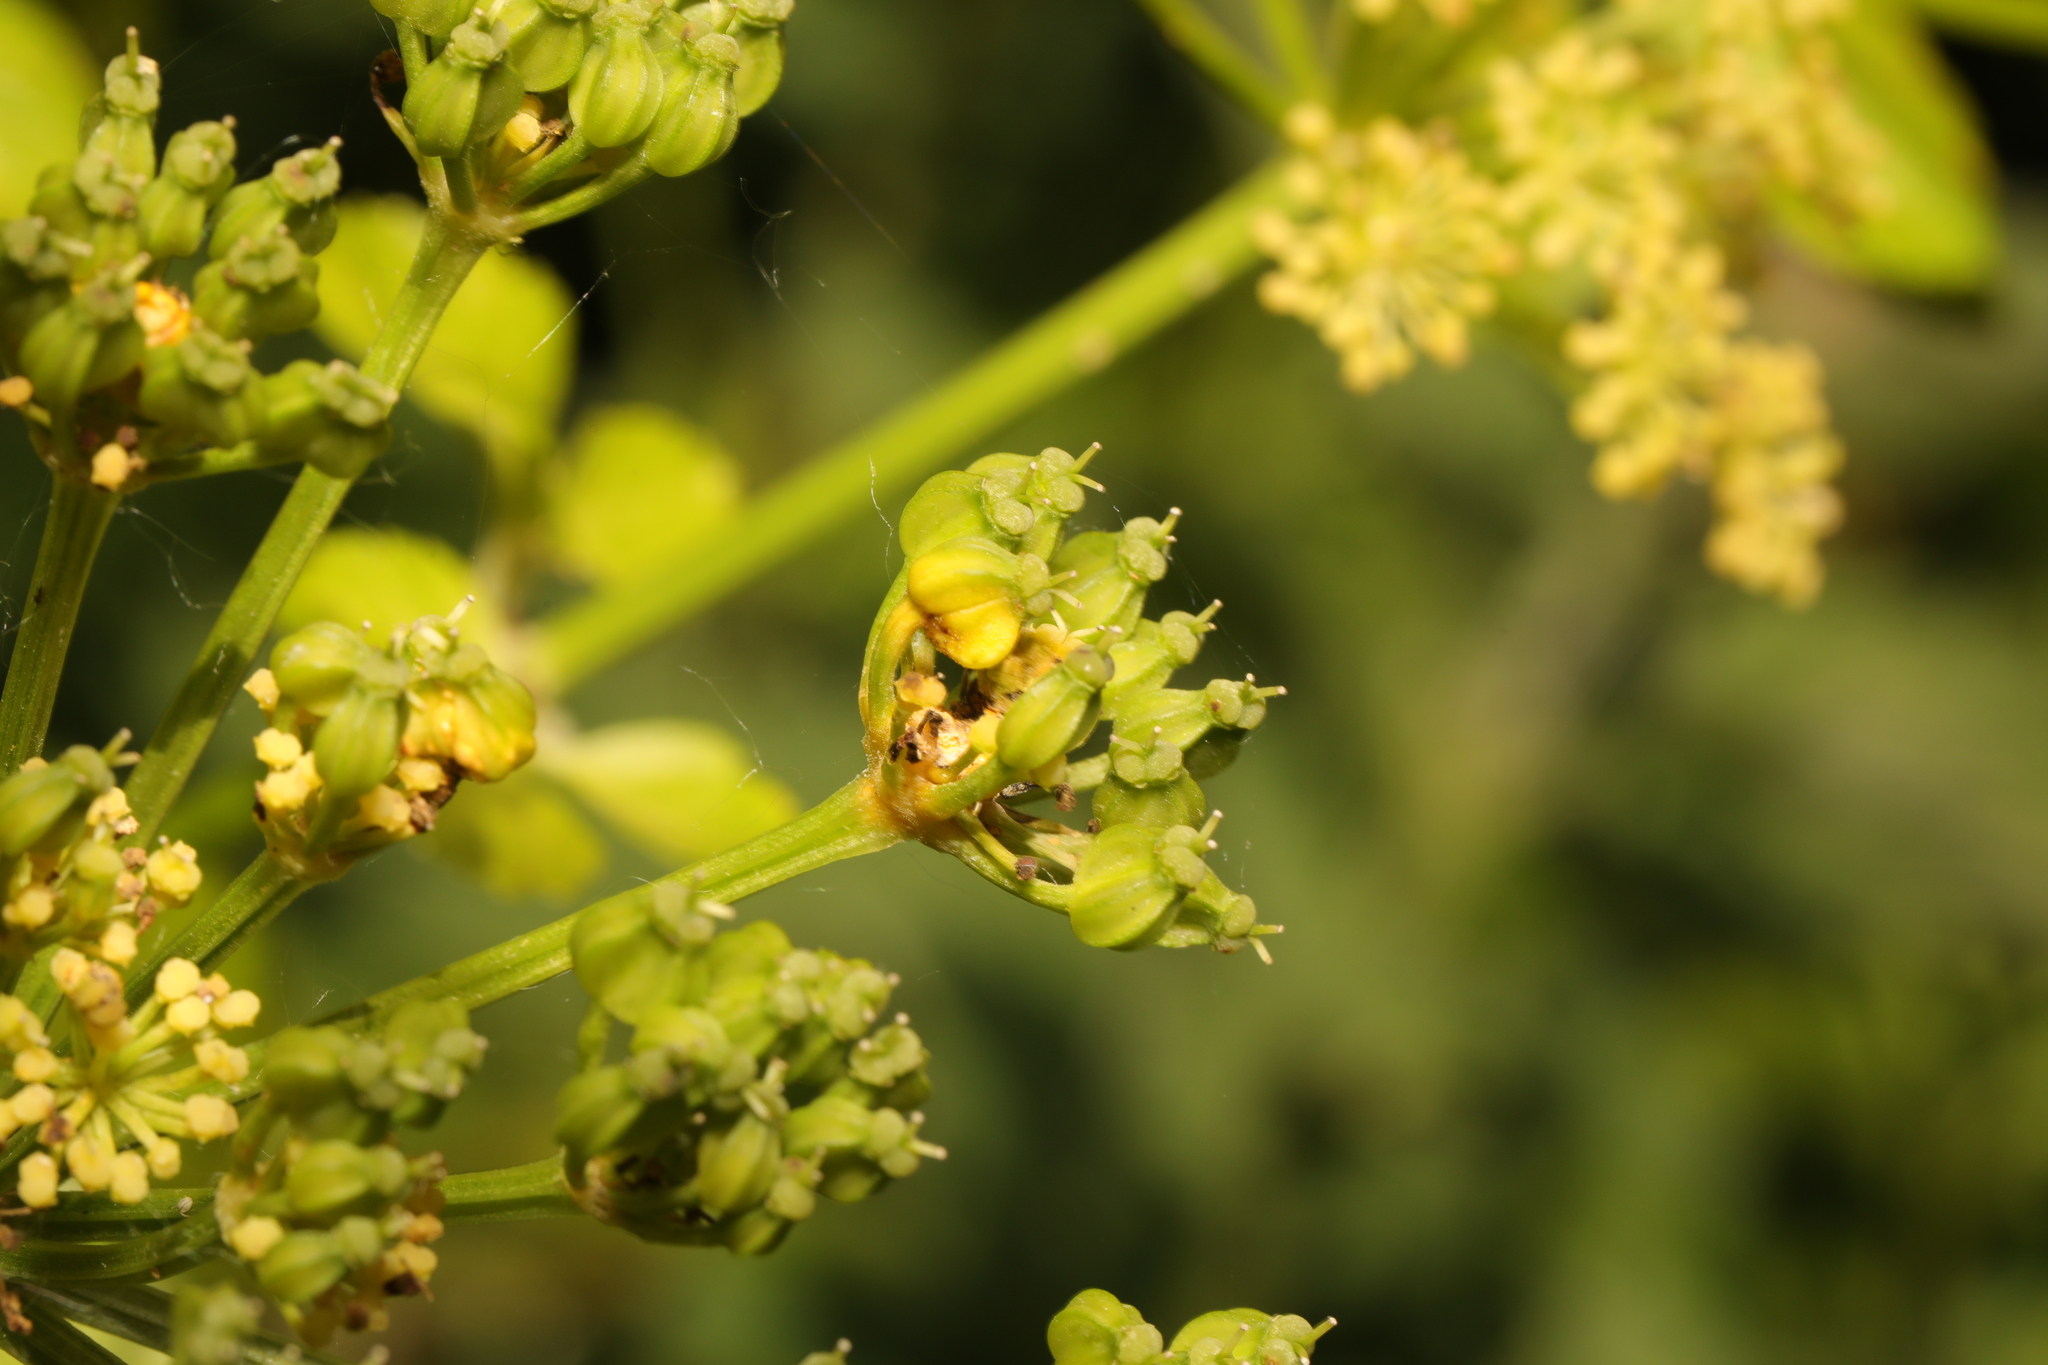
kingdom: Plantae
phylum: Tracheophyta
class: Magnoliopsida
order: Apiales
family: Apiaceae
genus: Smyrnium
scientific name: Smyrnium olusatrum
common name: Alexanders
